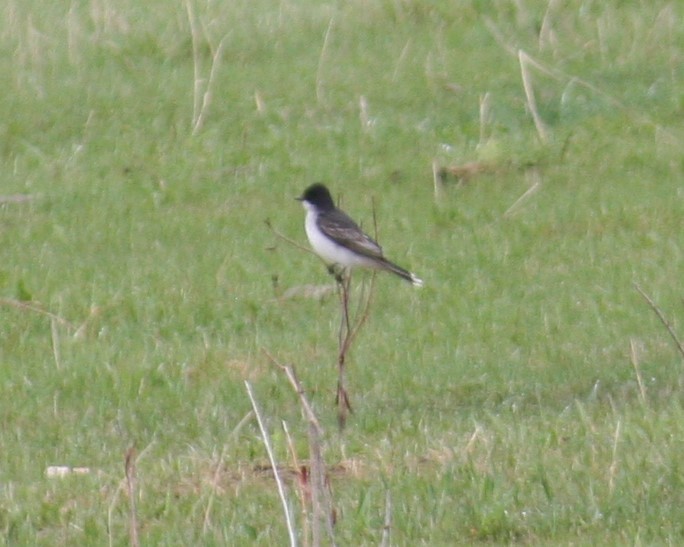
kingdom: Animalia
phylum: Chordata
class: Aves
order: Passeriformes
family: Tyrannidae
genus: Tyrannus
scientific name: Tyrannus tyrannus
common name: Eastern kingbird
